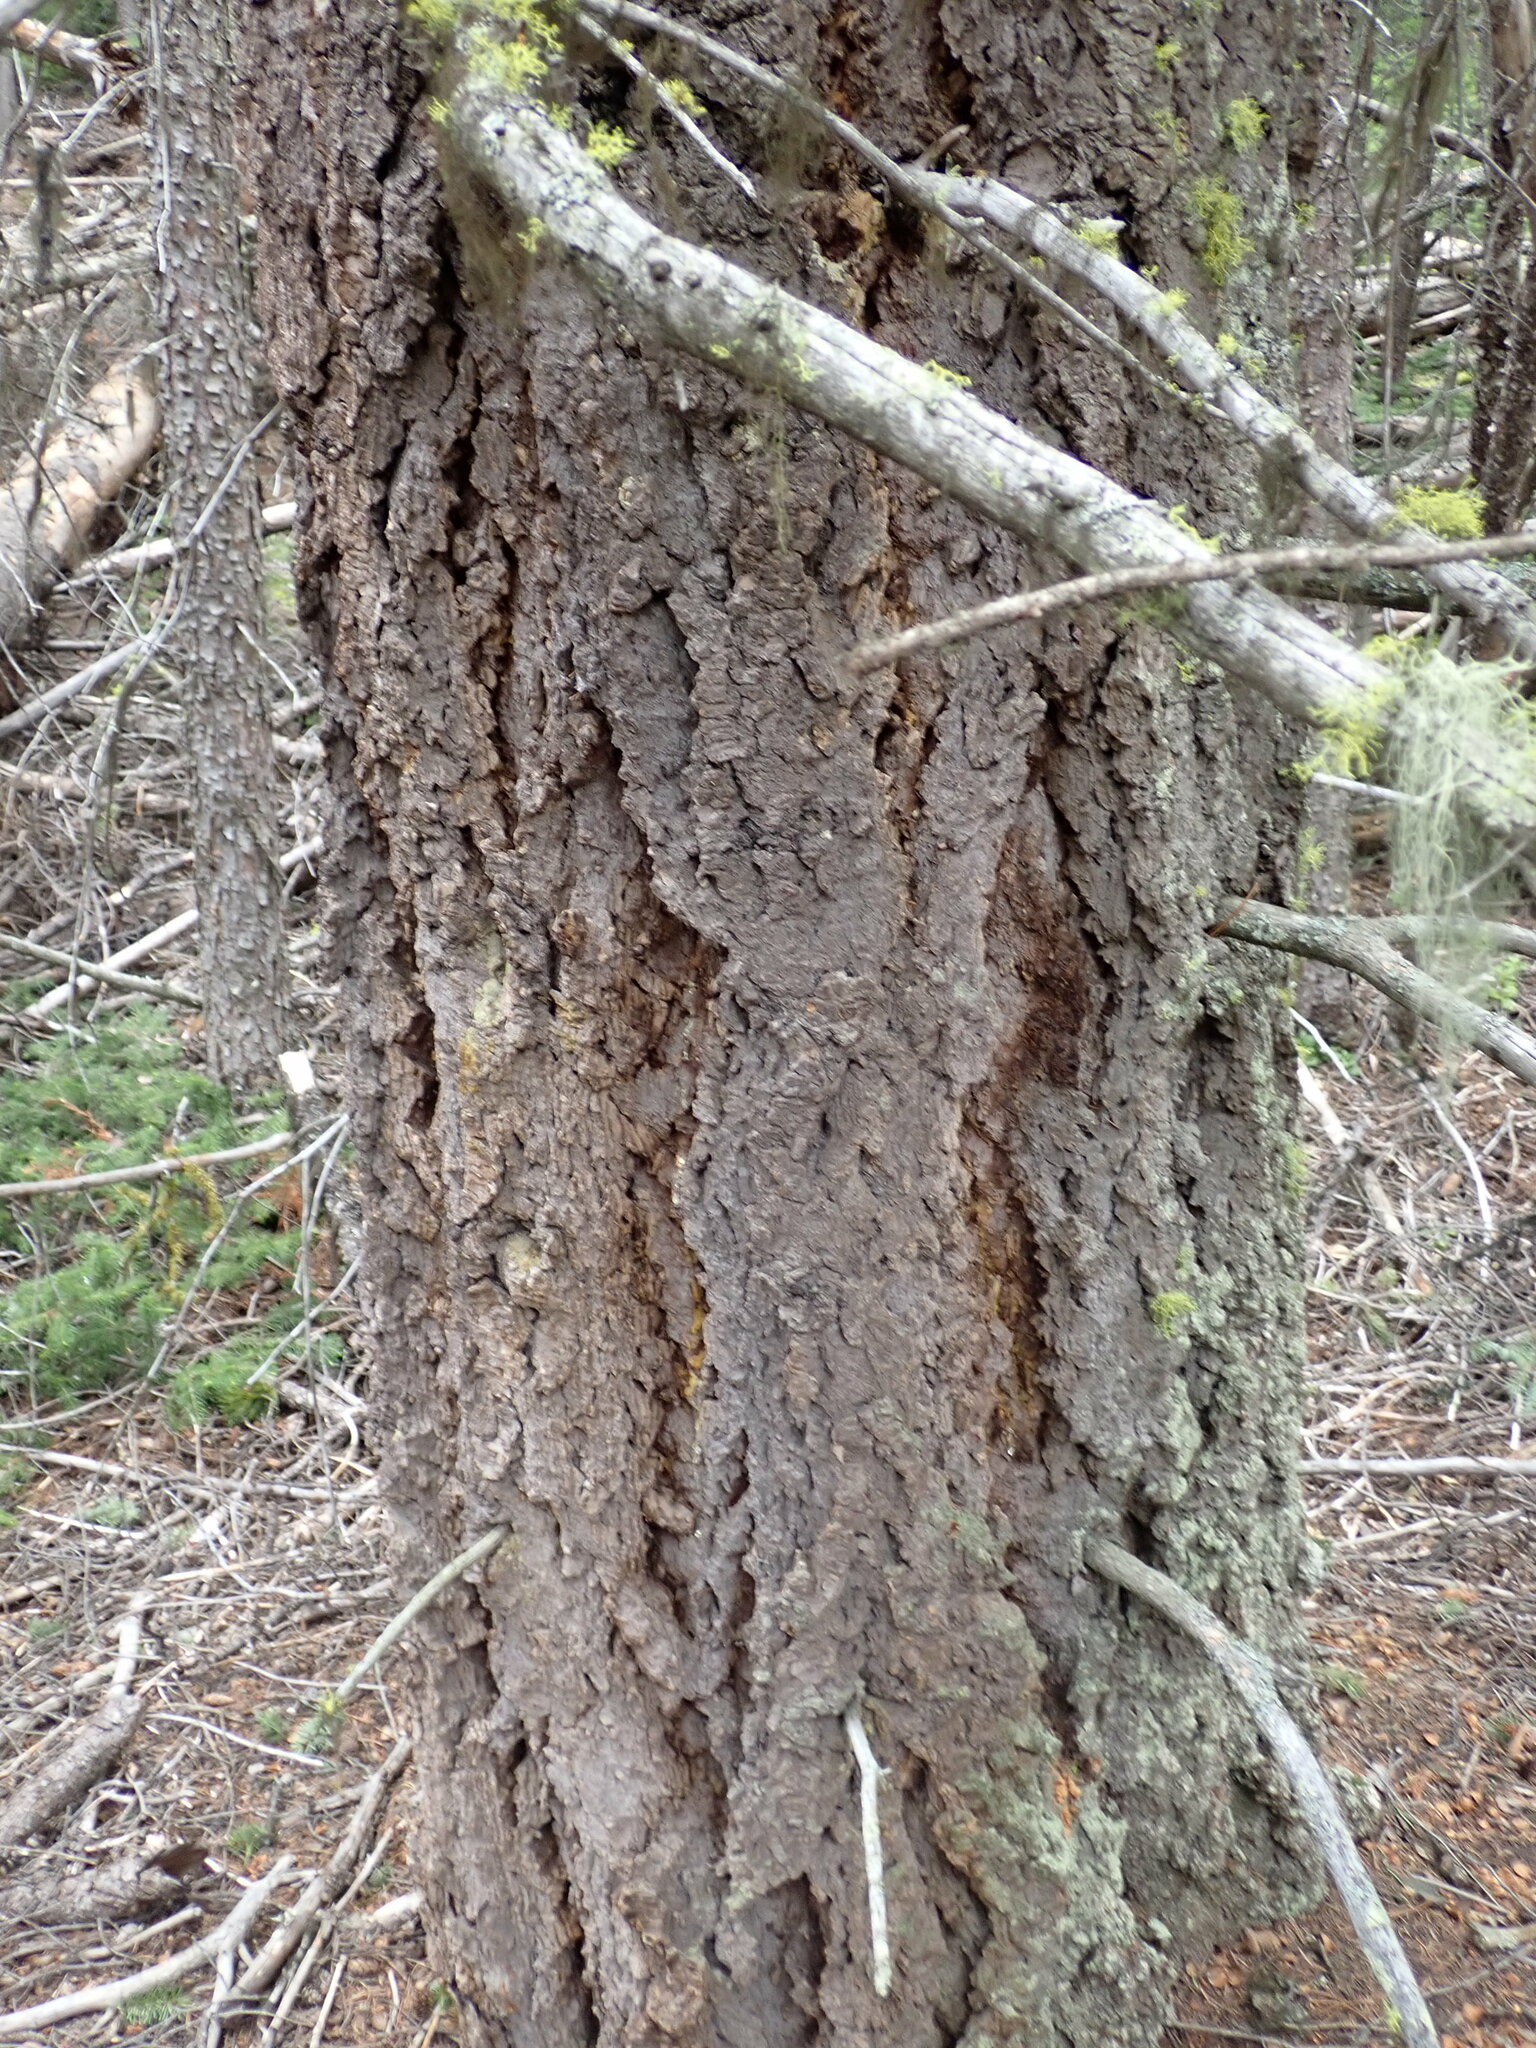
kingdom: Plantae
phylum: Tracheophyta
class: Pinopsida
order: Pinales
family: Pinaceae
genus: Pseudotsuga
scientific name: Pseudotsuga menziesii
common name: Douglas fir
